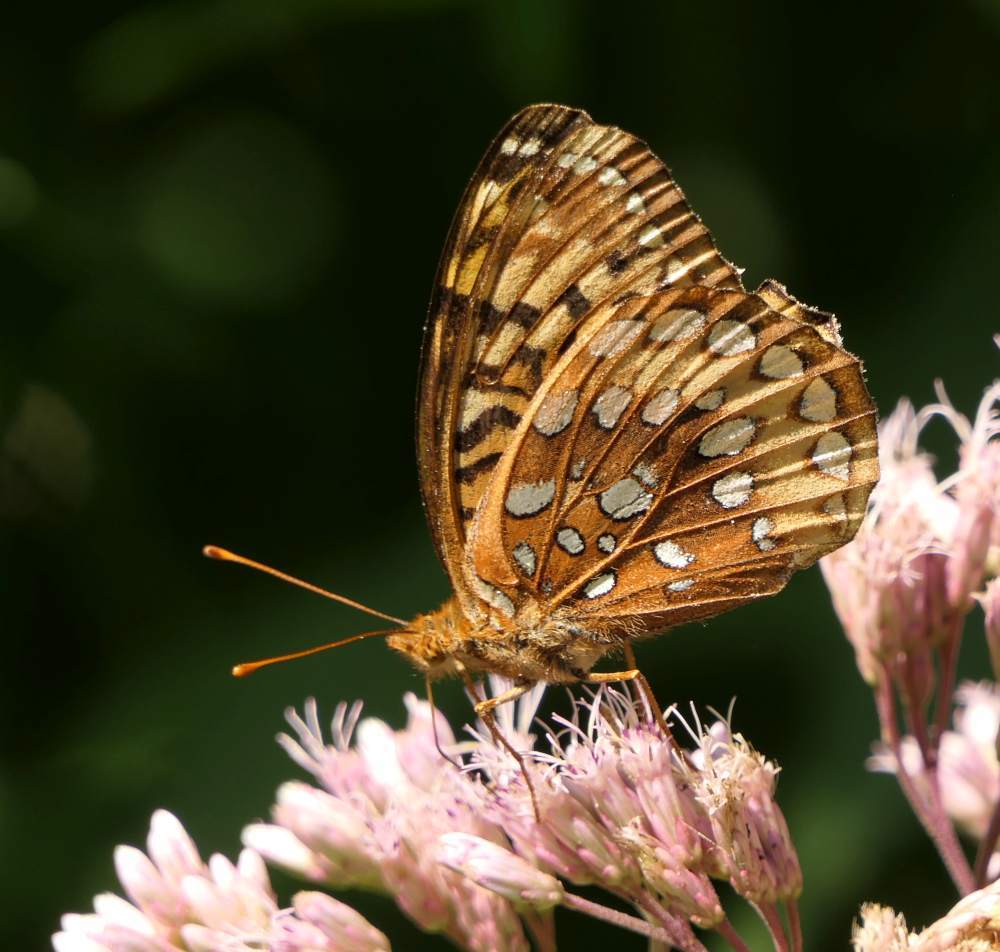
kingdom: Animalia
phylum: Arthropoda
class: Insecta
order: Lepidoptera
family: Nymphalidae
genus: Speyeria
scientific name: Speyeria cybele
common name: Great spangled fritillary
